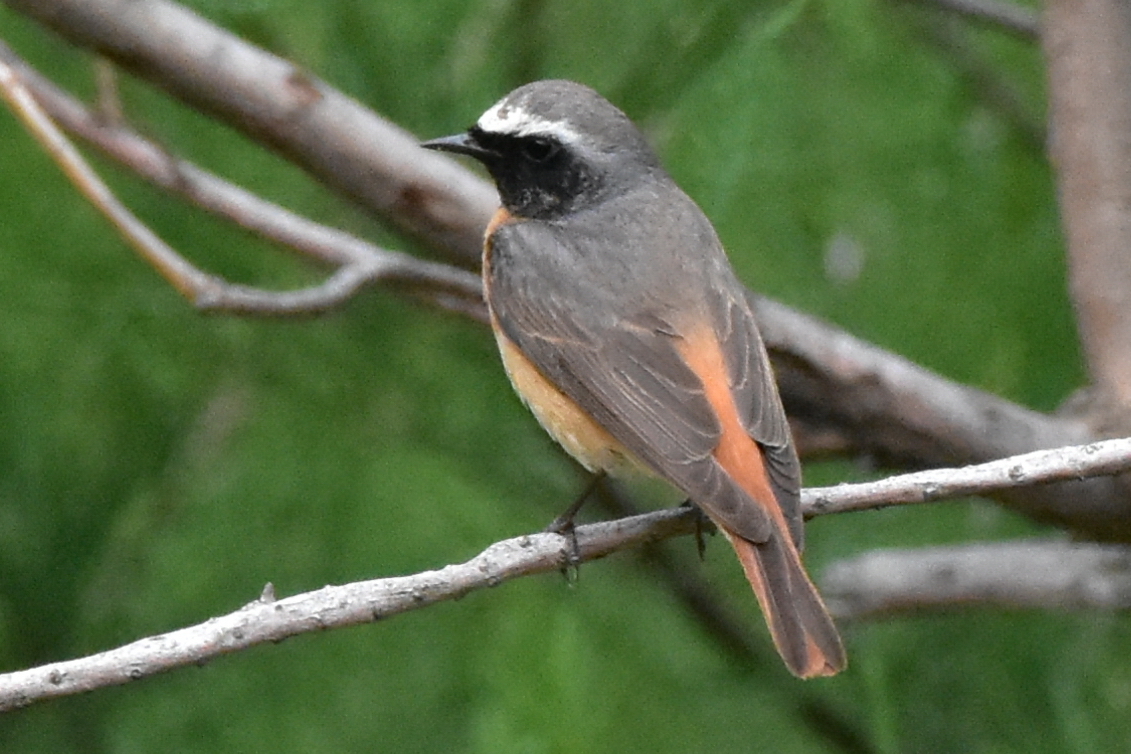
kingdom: Animalia
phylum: Chordata
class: Aves
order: Passeriformes
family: Muscicapidae
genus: Phoenicurus
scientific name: Phoenicurus phoenicurus
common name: Common redstart
